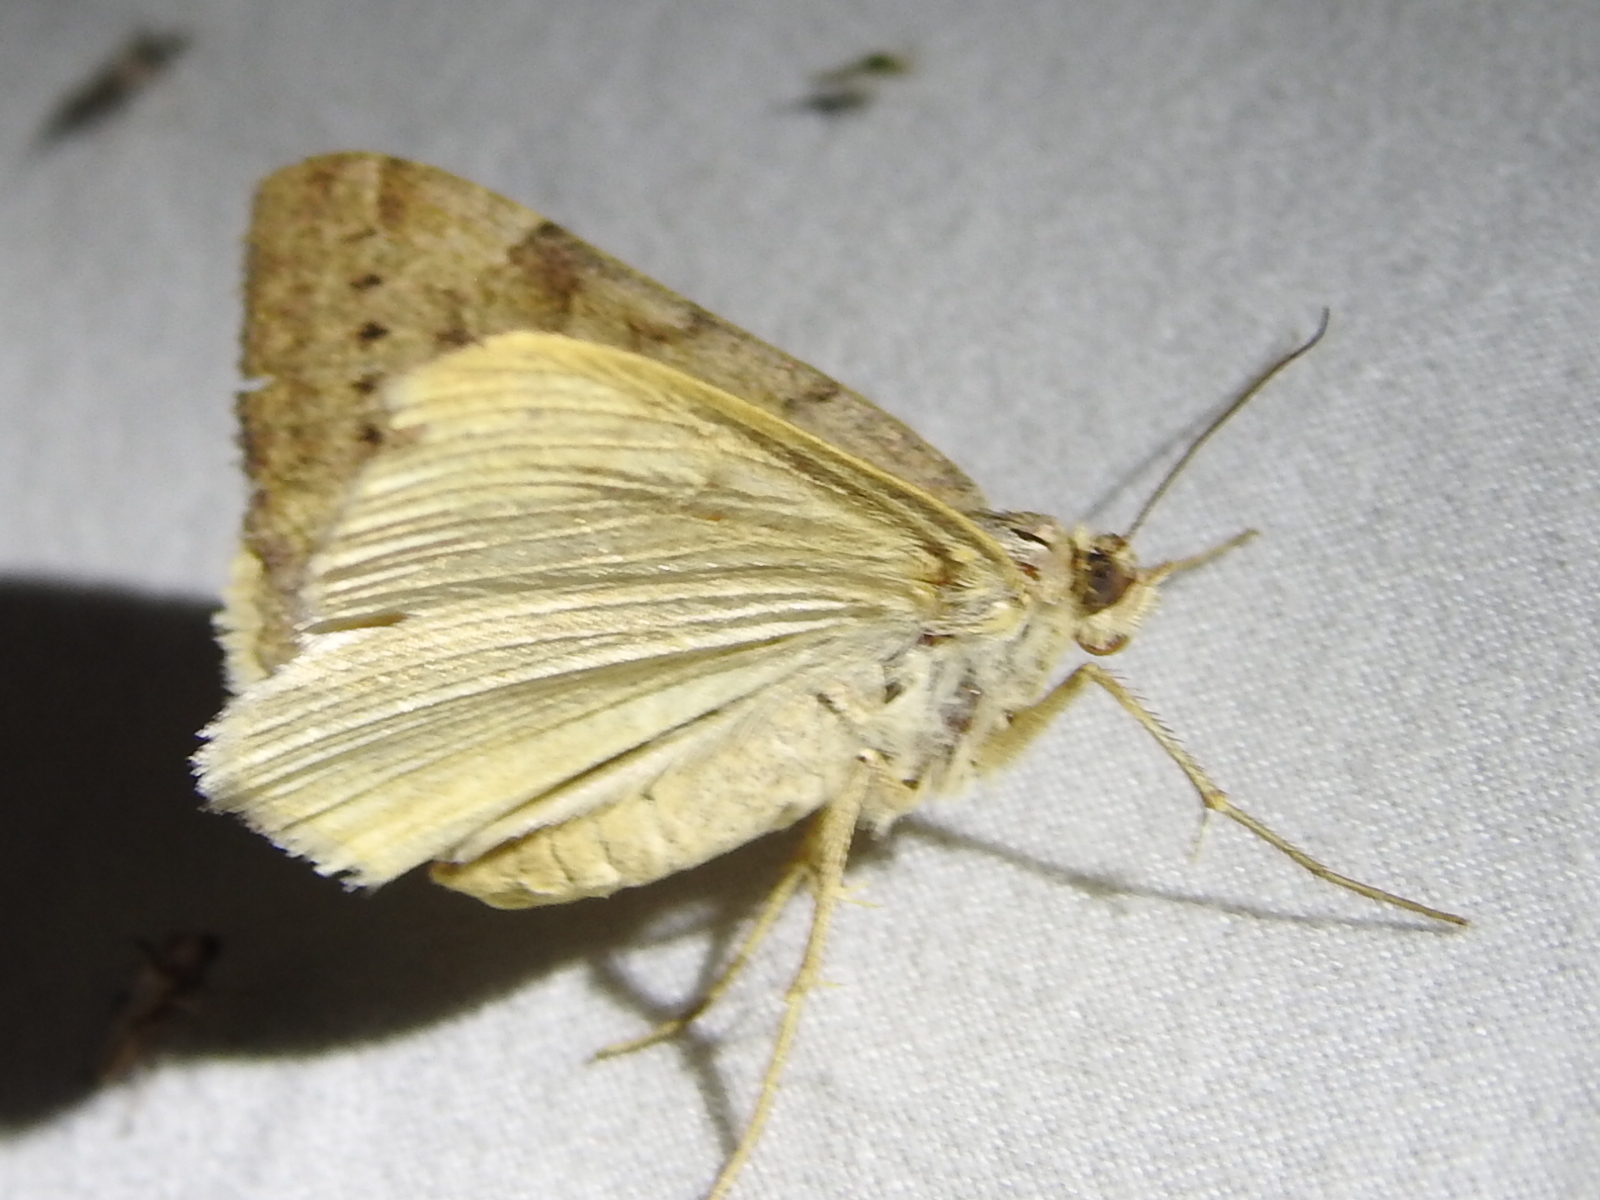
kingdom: Animalia
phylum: Arthropoda
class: Insecta
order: Lepidoptera
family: Erebidae
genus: Caenurgina
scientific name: Caenurgina erechtea
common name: Forage looper moth
